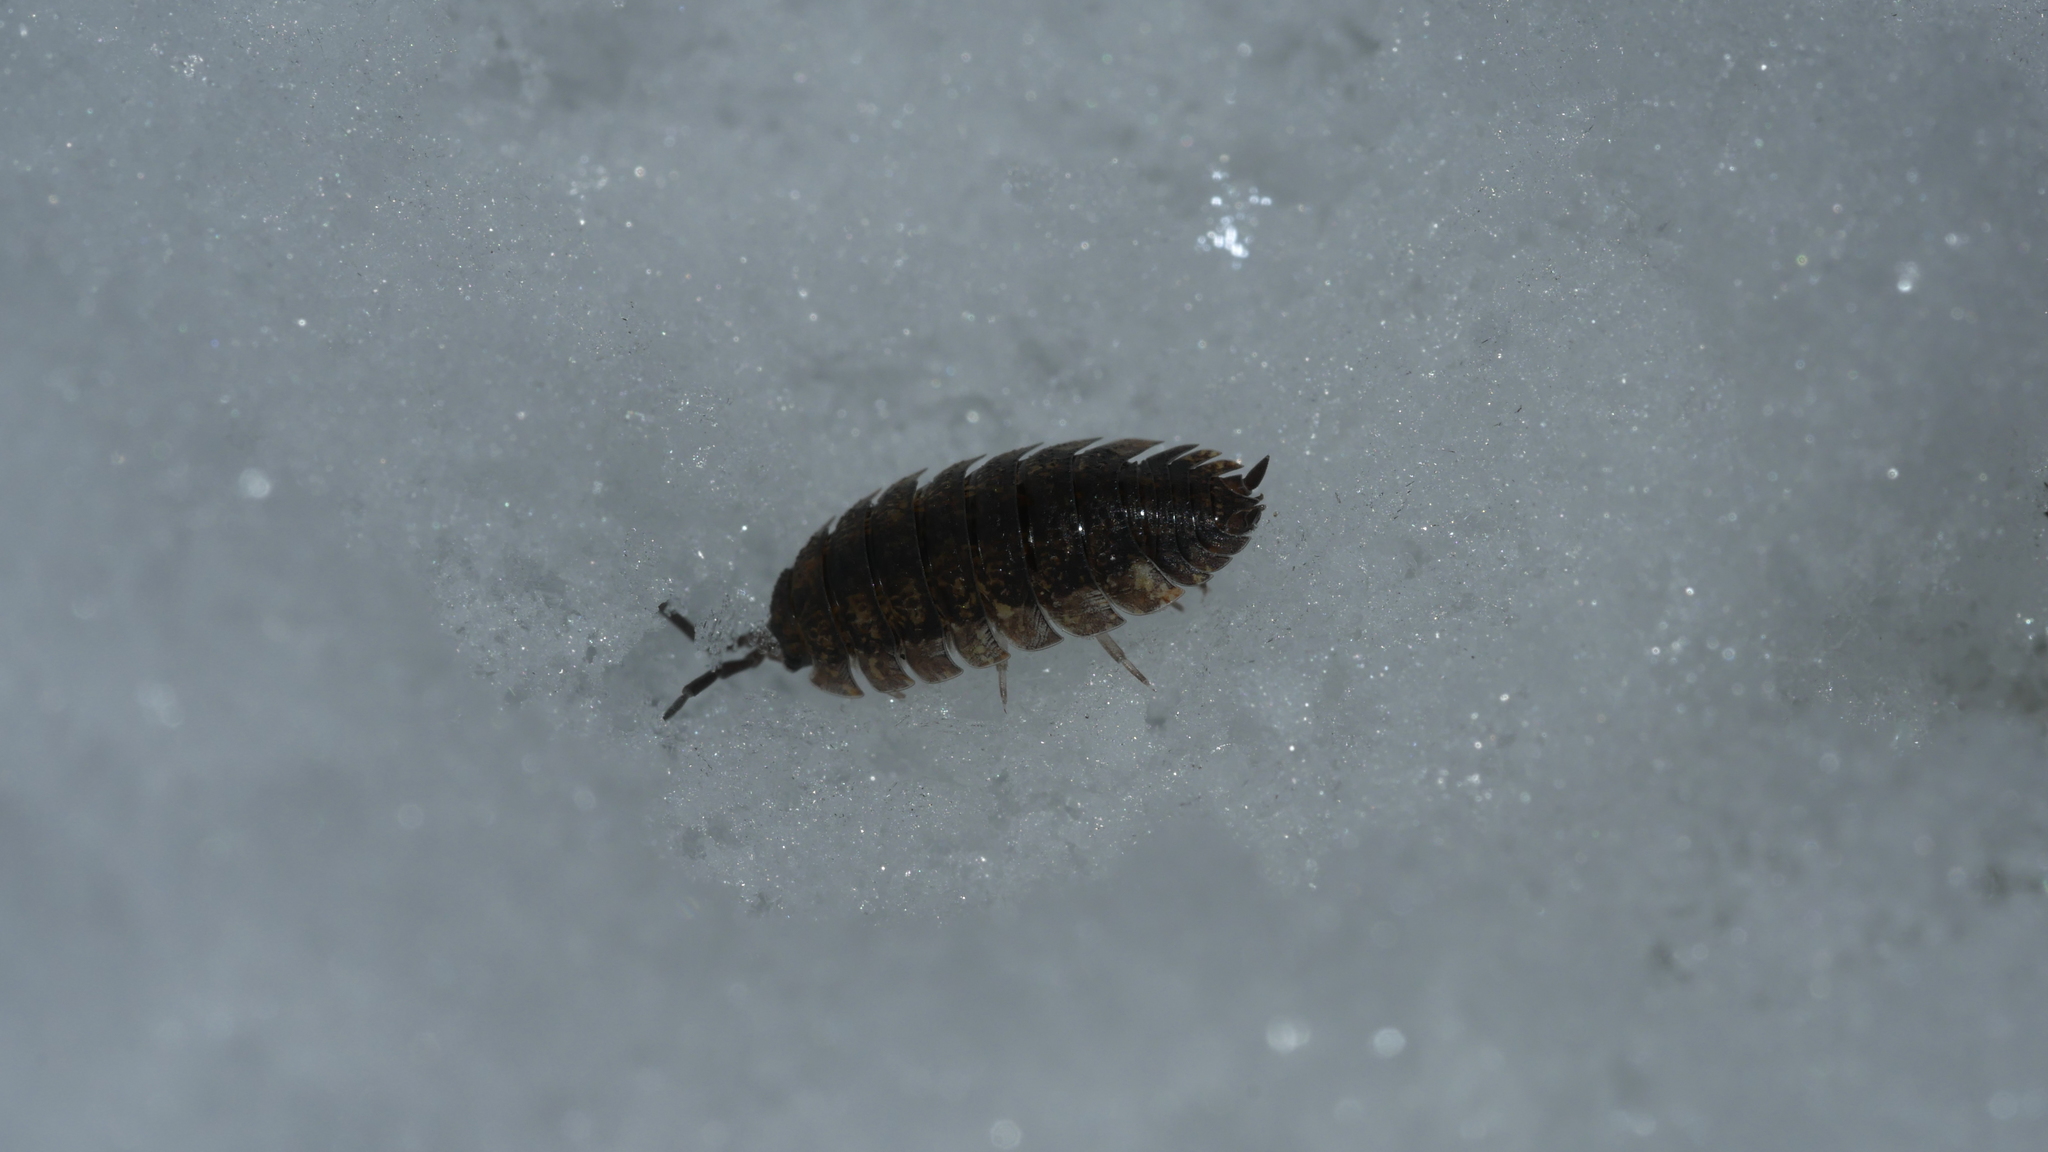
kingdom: Animalia
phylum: Arthropoda
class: Malacostraca
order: Isopoda
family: Porcellionidae
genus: Porcellio
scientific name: Porcellio scaber
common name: Common rough woodlouse
